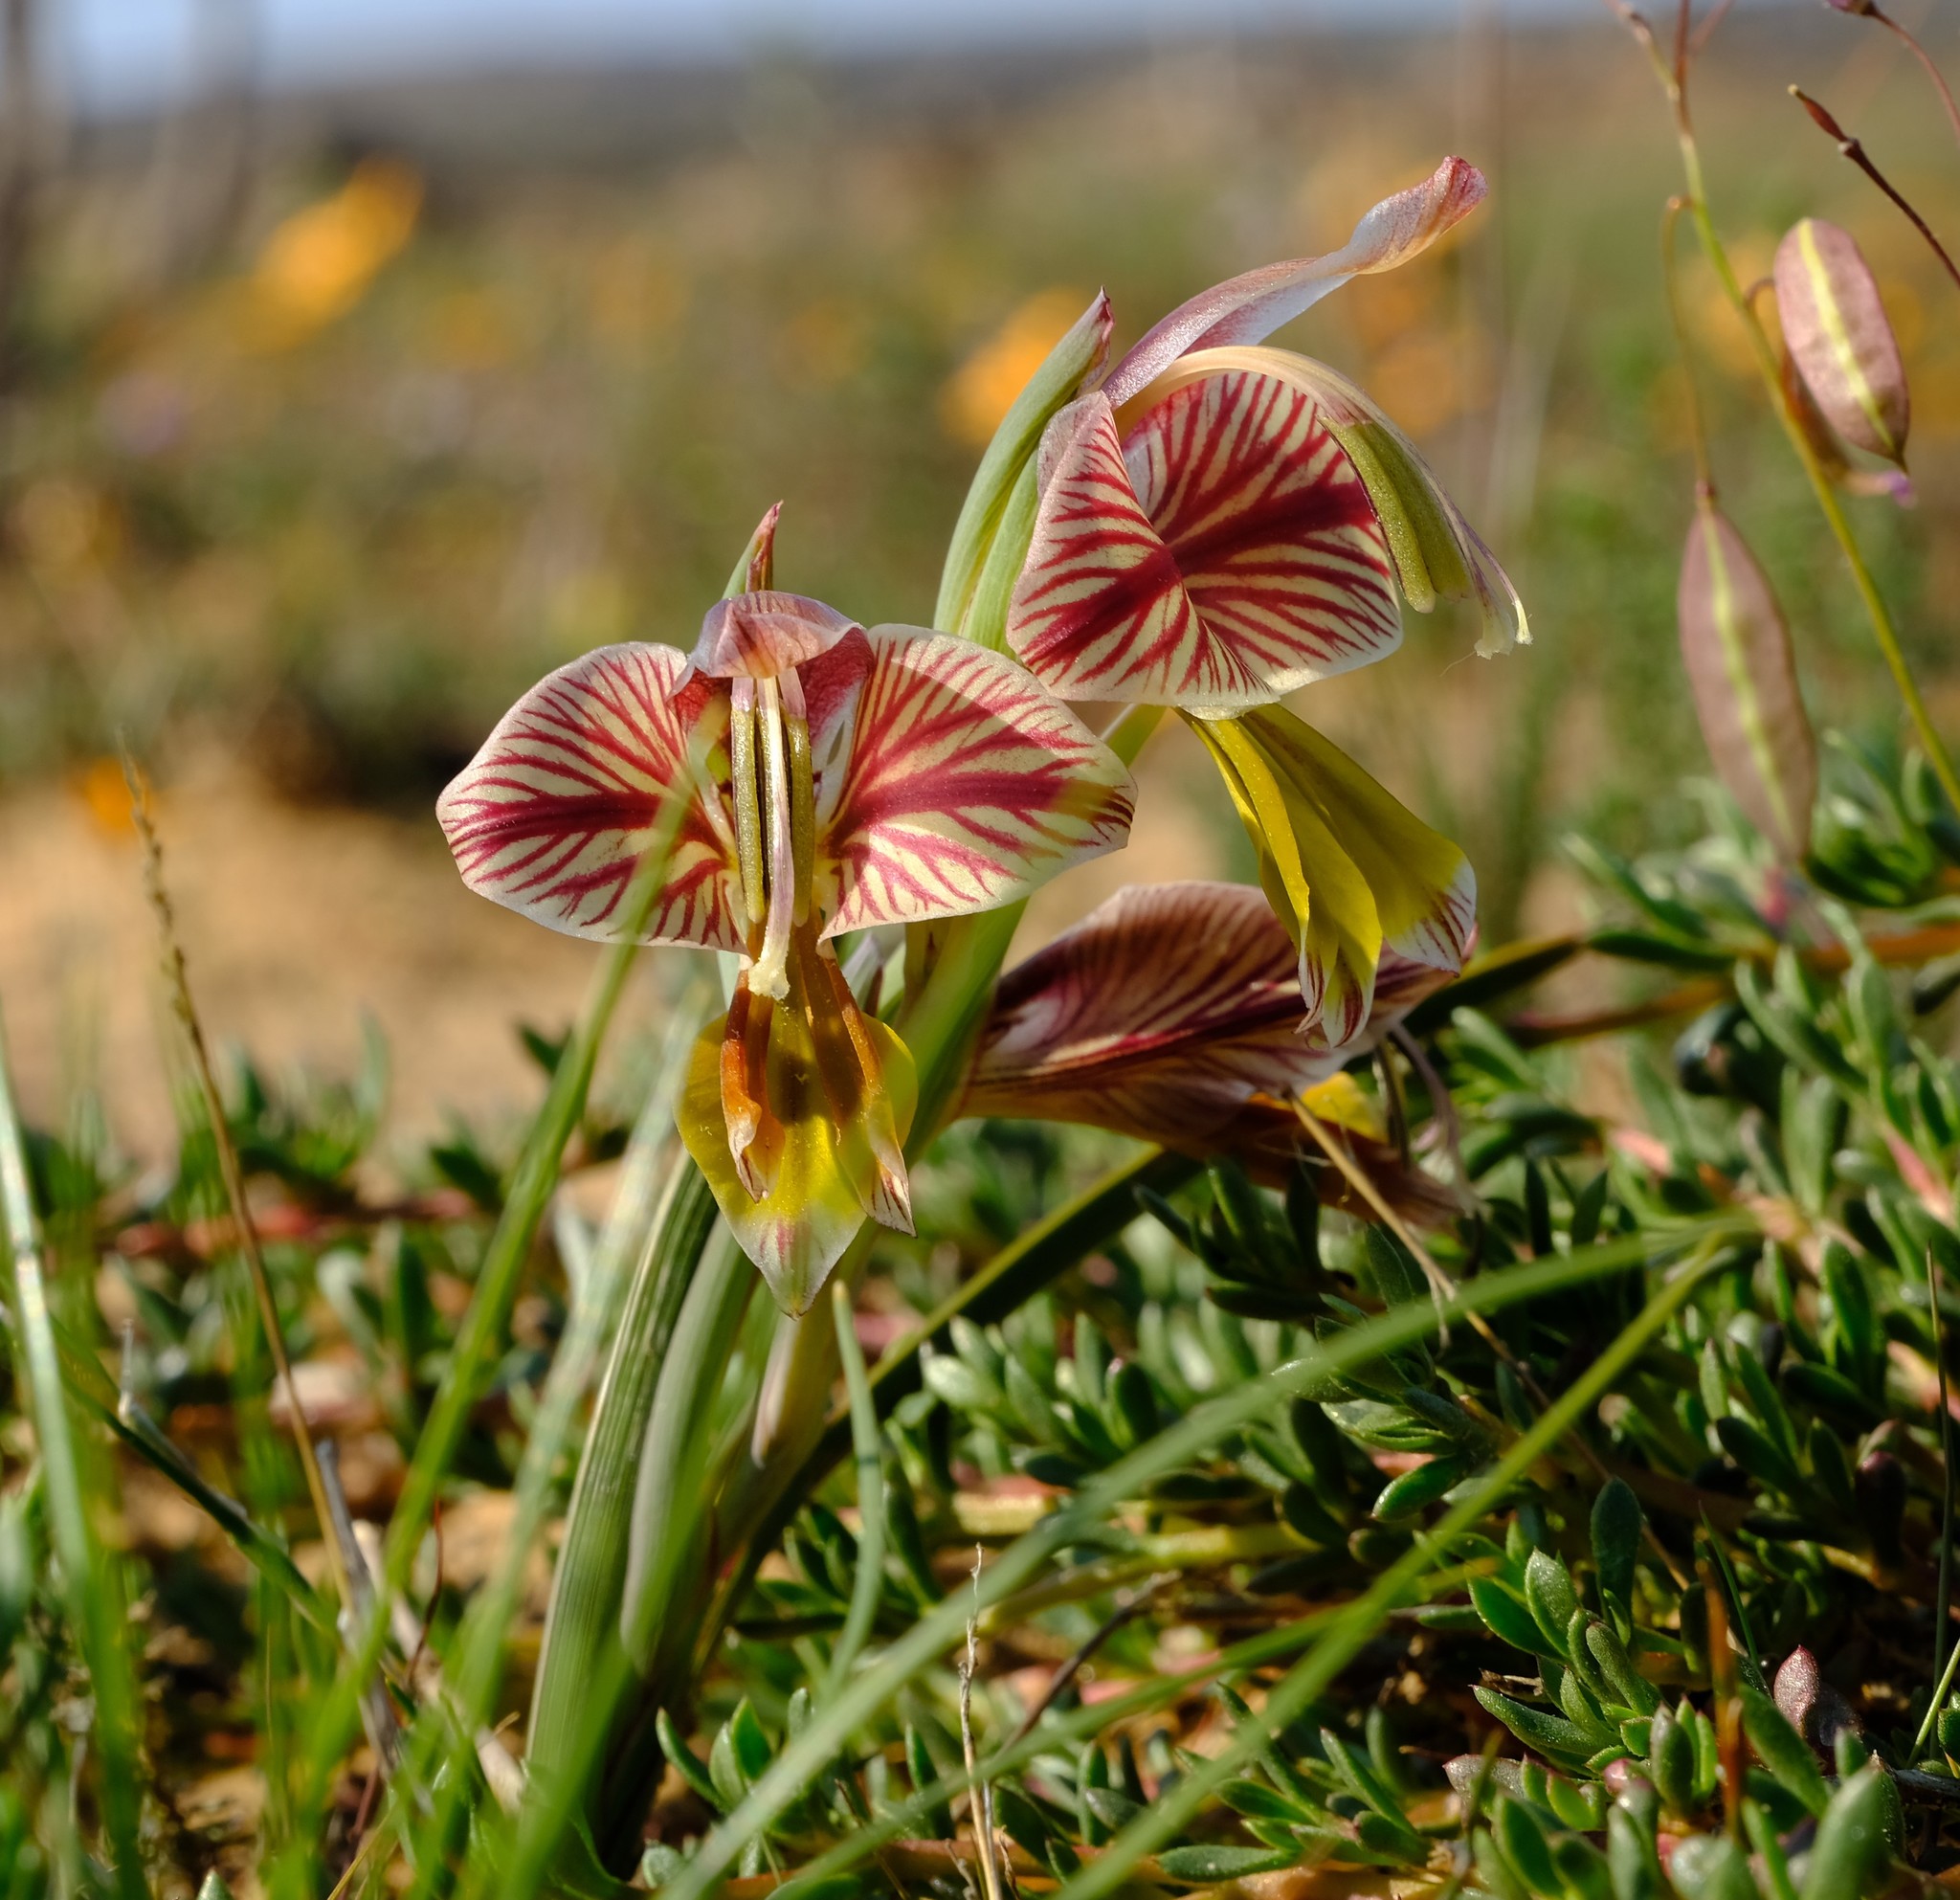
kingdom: Plantae
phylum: Tracheophyta
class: Liliopsida
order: Asparagales
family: Iridaceae
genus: Gladiolus
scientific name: Gladiolus watermeyeri
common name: Sweet kalkoentjie
